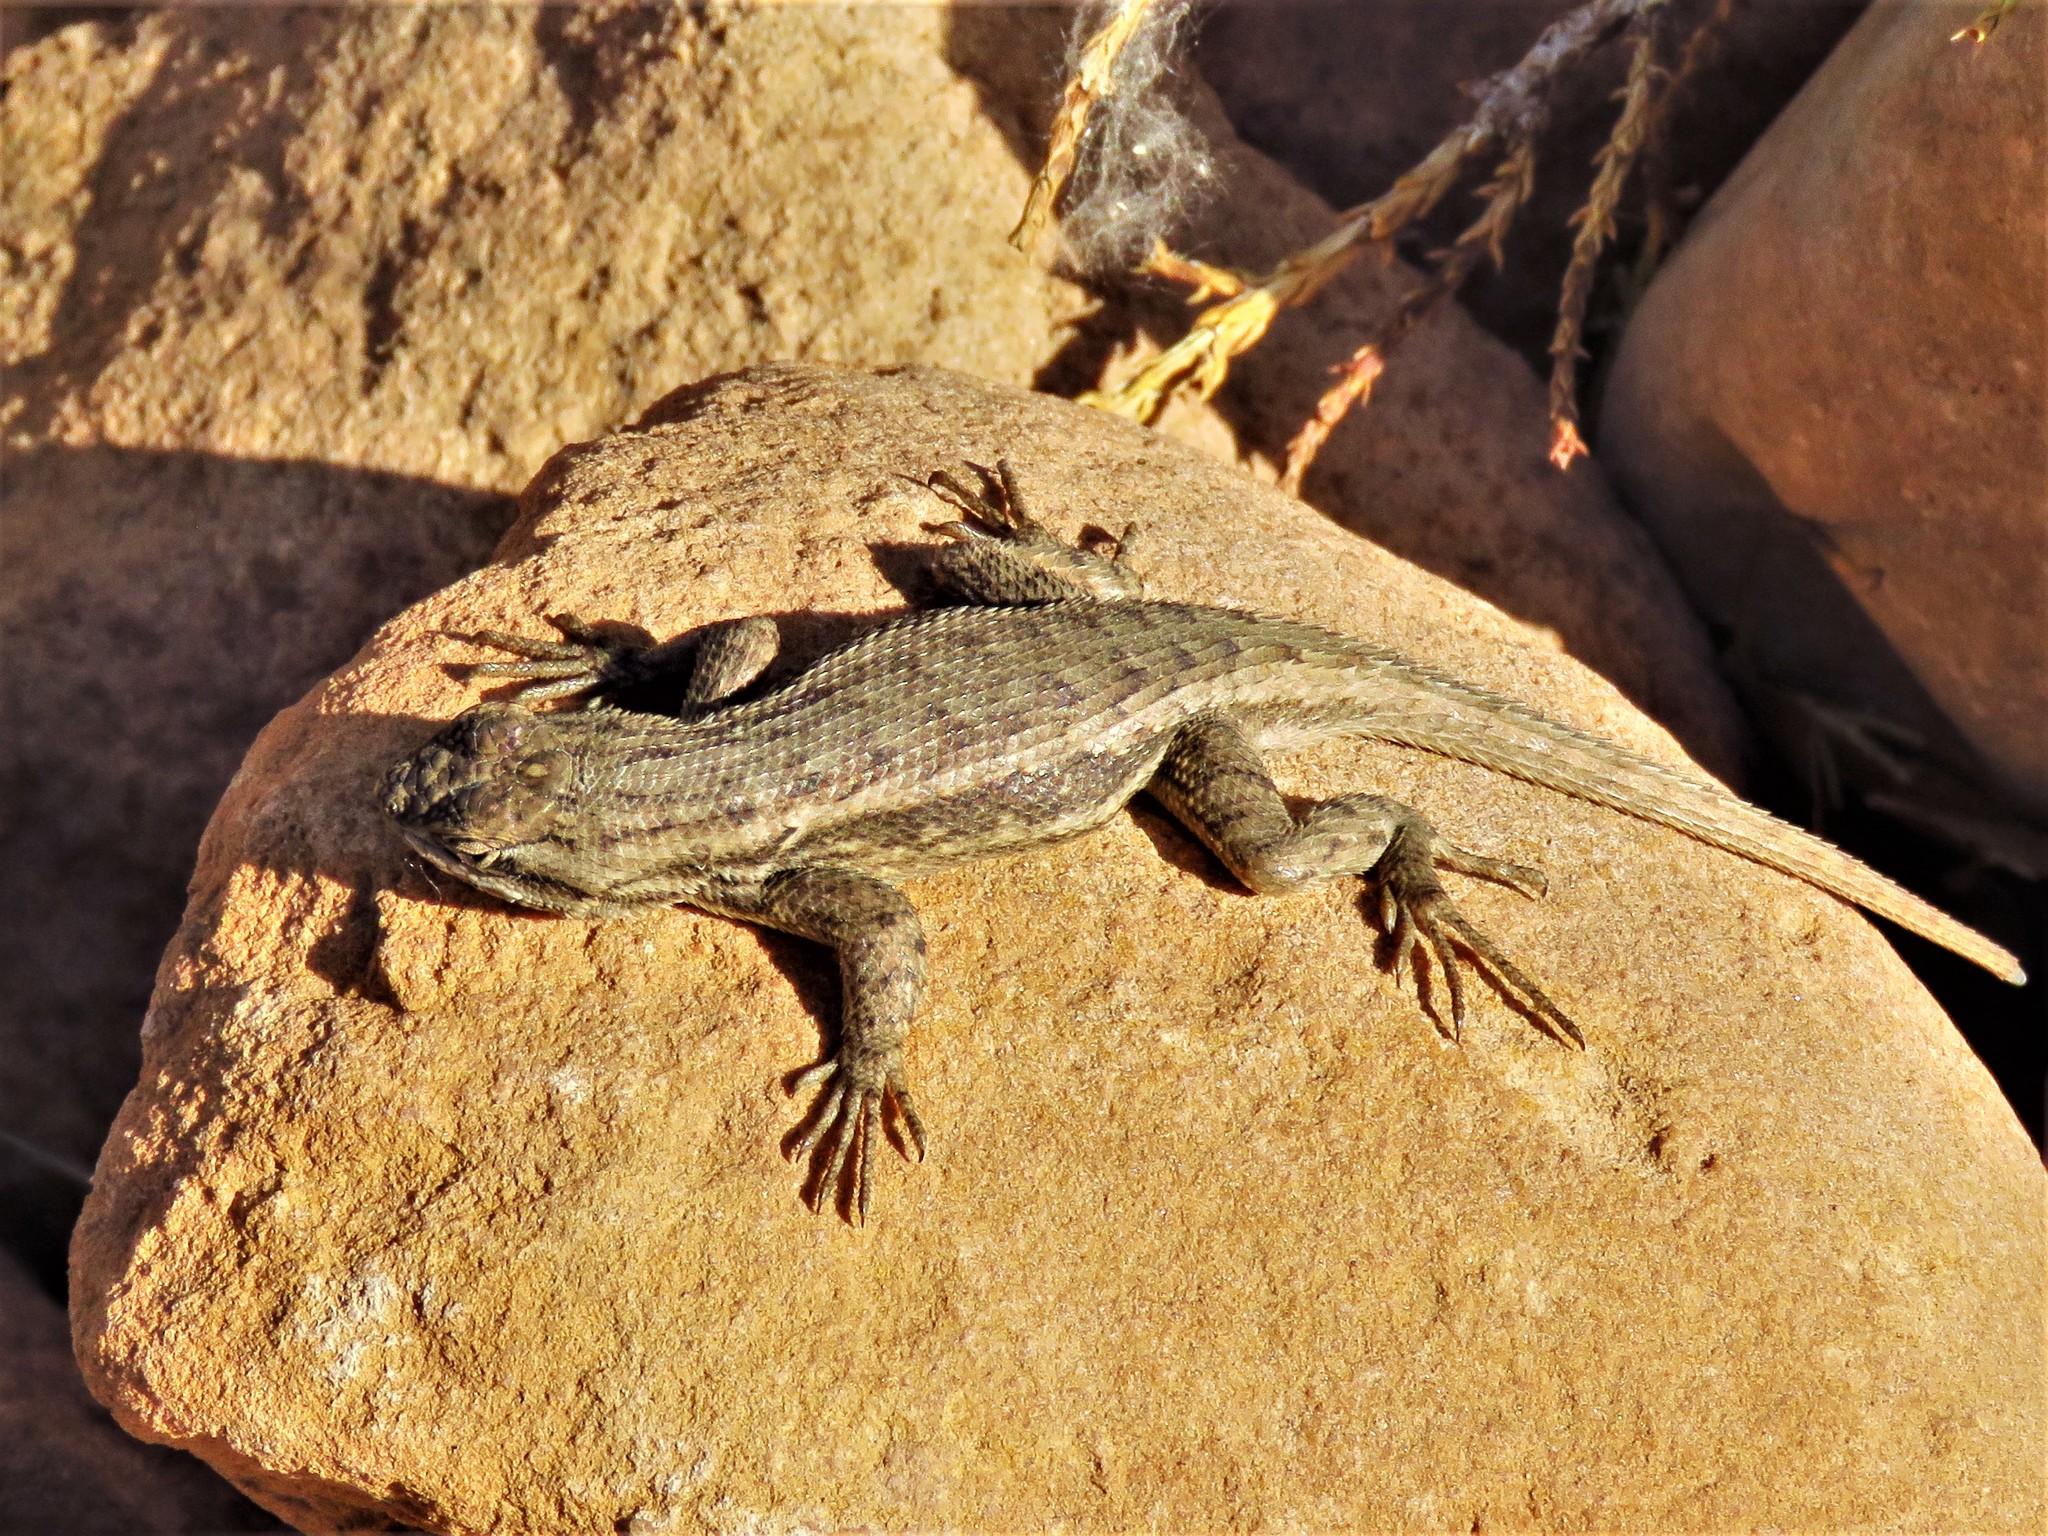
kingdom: Animalia
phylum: Chordata
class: Squamata
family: Phrynosomatidae
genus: Sceloporus
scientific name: Sceloporus tristichus
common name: Plateau fence lizard
